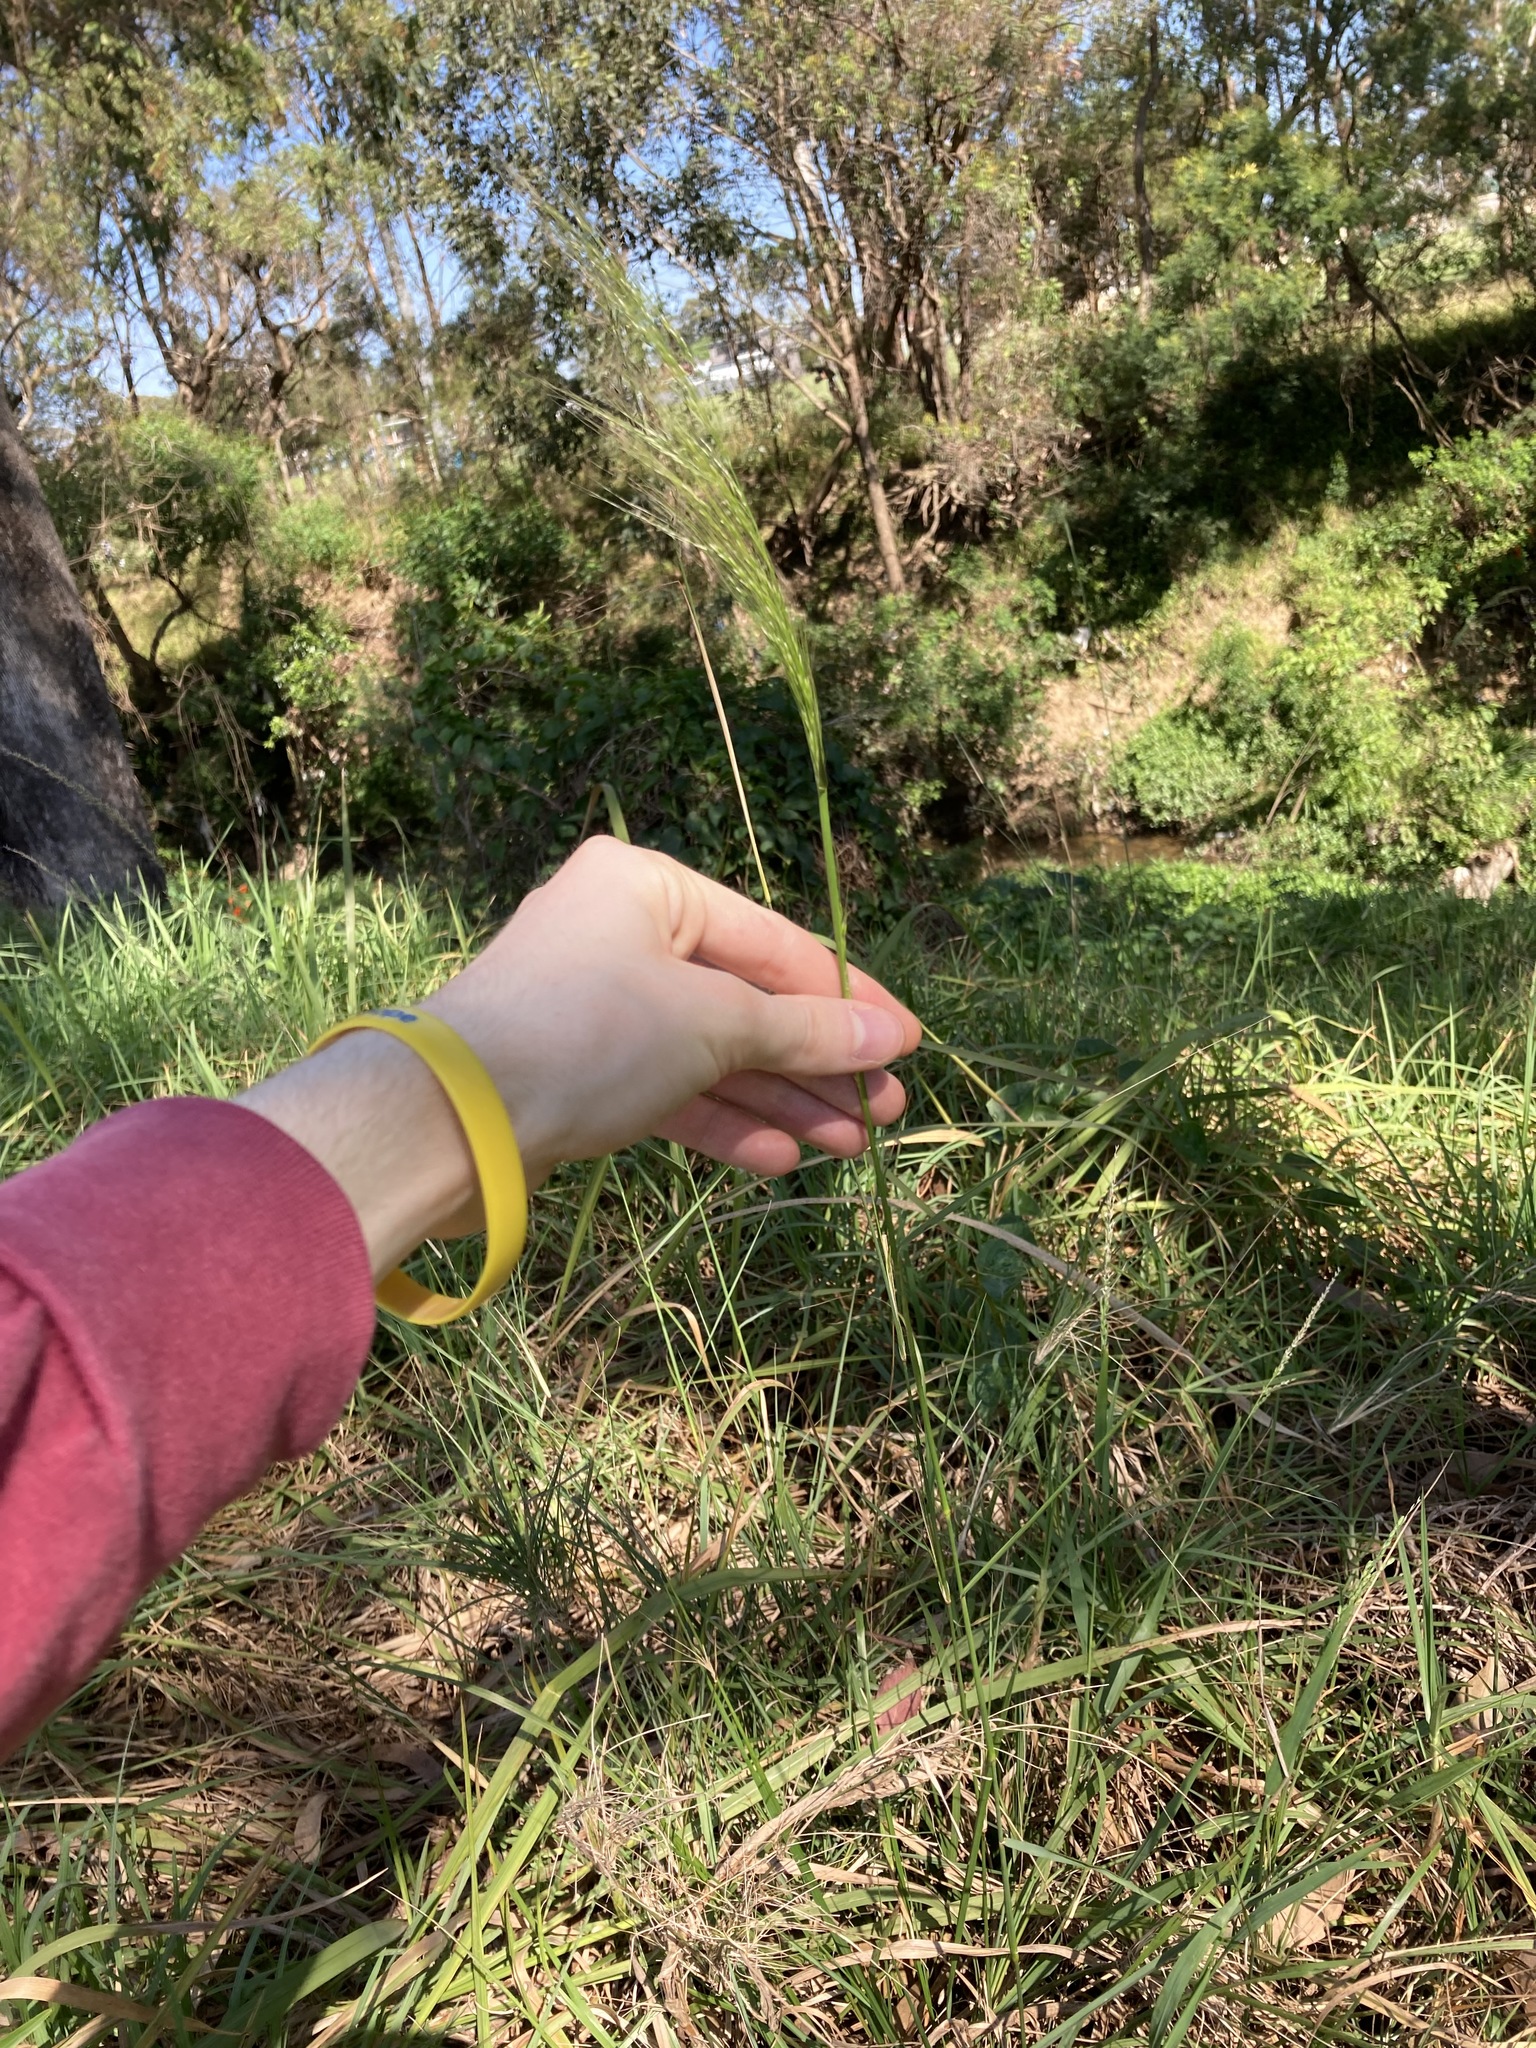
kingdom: Plantae
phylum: Tracheophyta
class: Liliopsida
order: Poales
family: Poaceae
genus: Dichelachne
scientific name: Dichelachne
